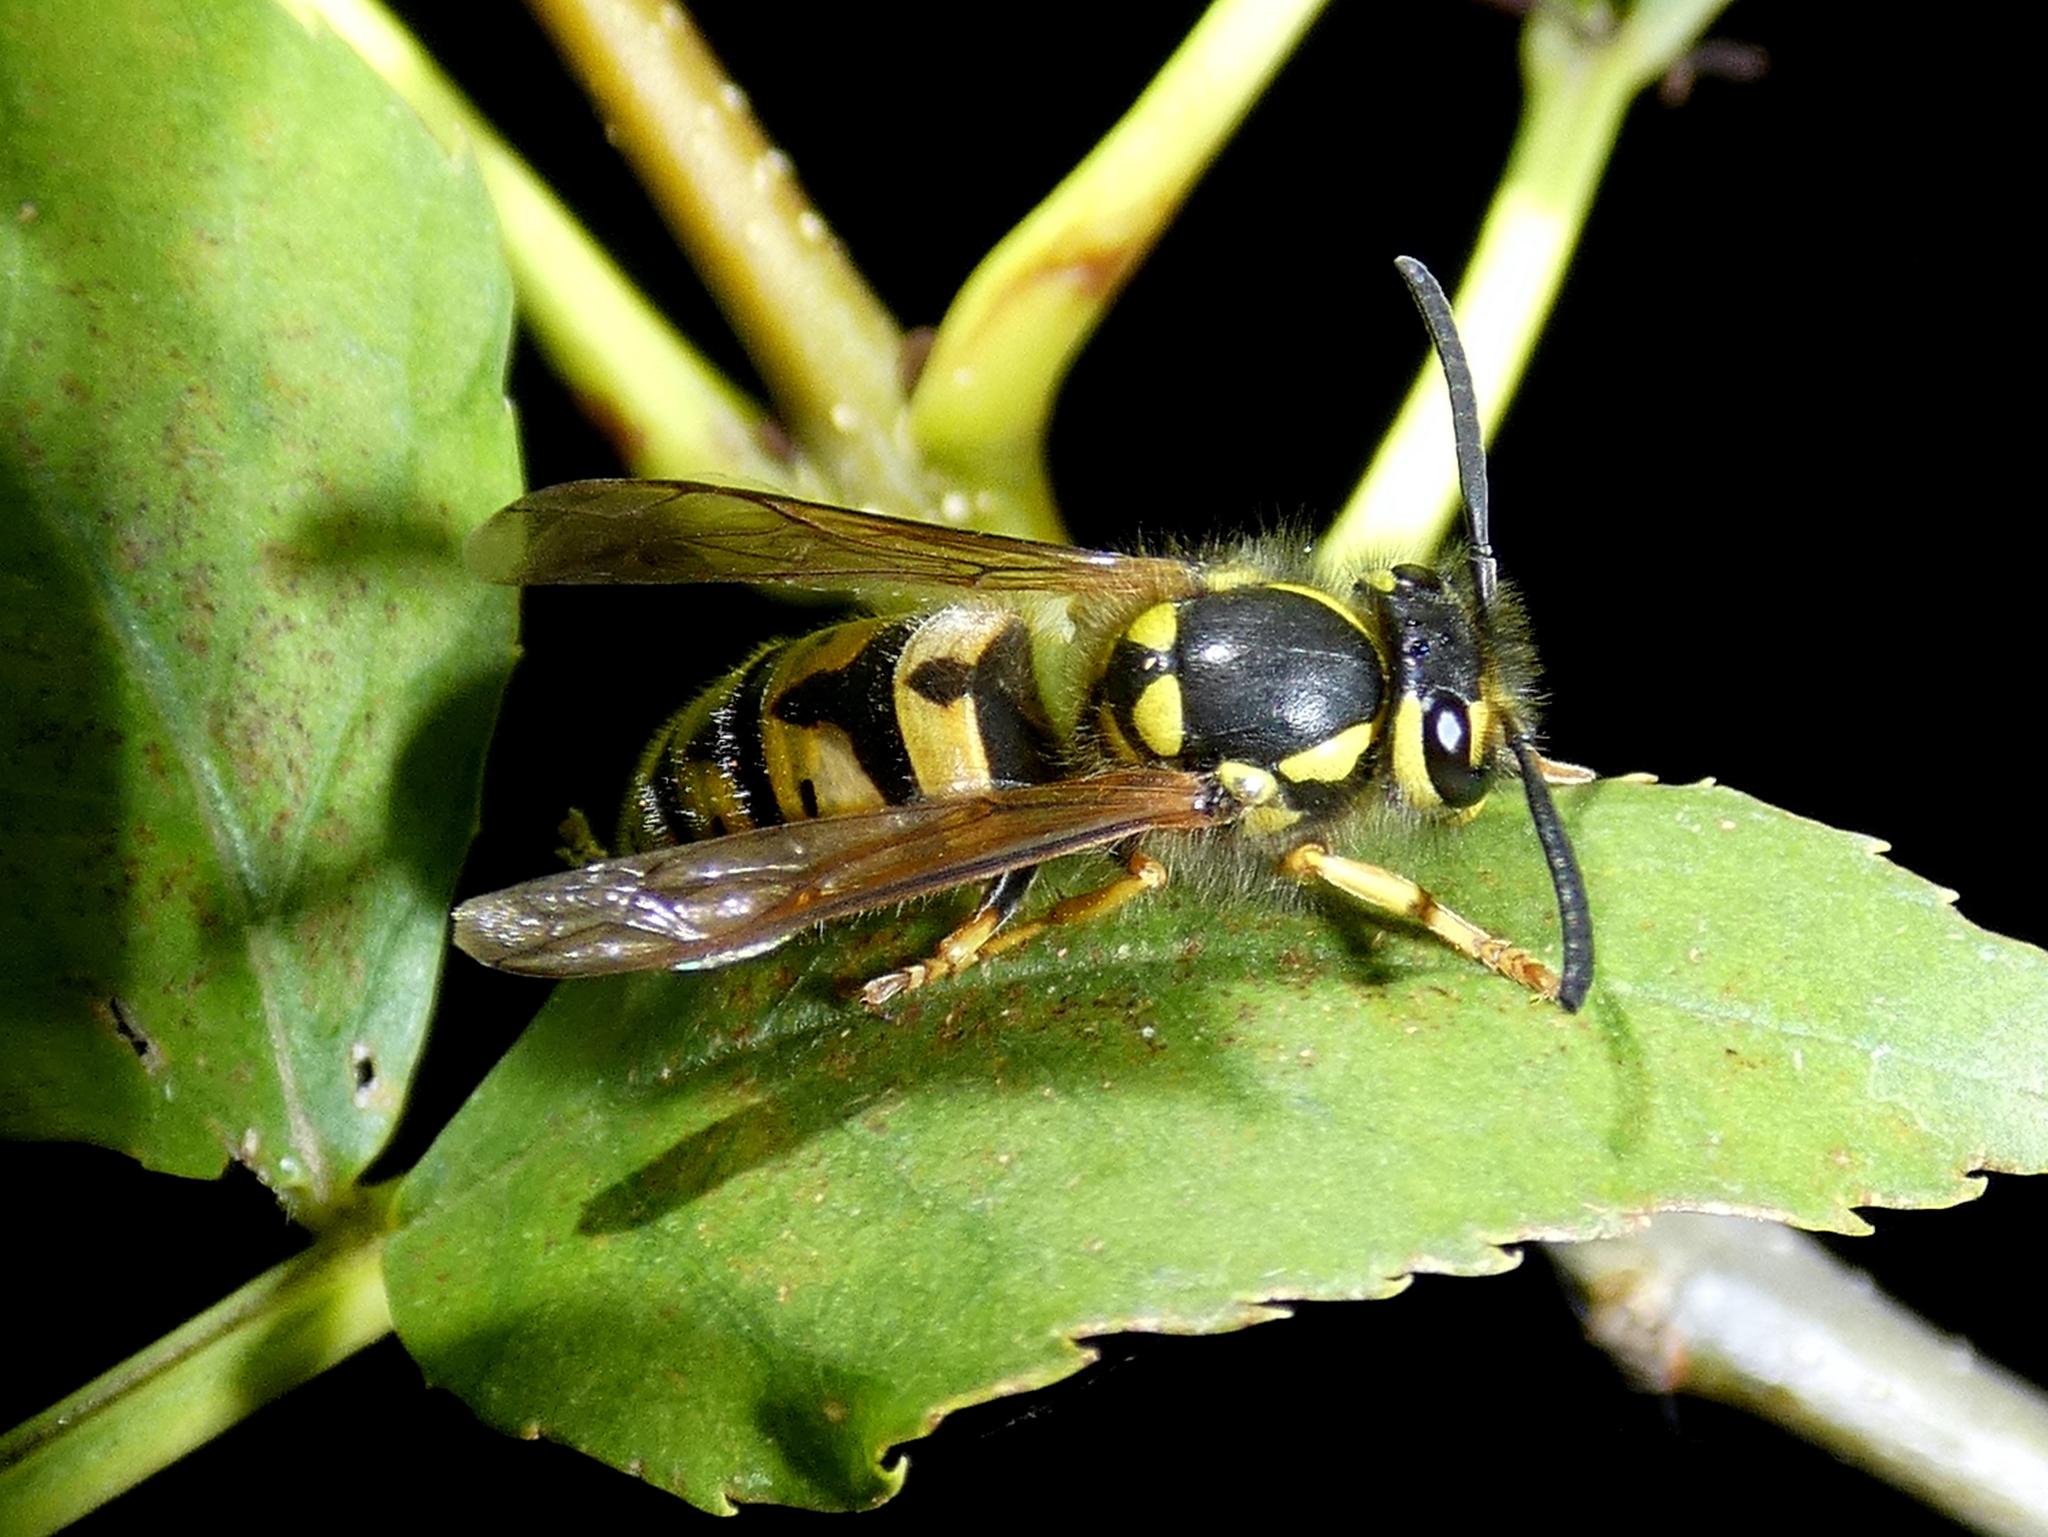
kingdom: Animalia
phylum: Arthropoda
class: Insecta
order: Hymenoptera
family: Vespidae
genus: Vespula
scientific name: Vespula germanica
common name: German wasp
